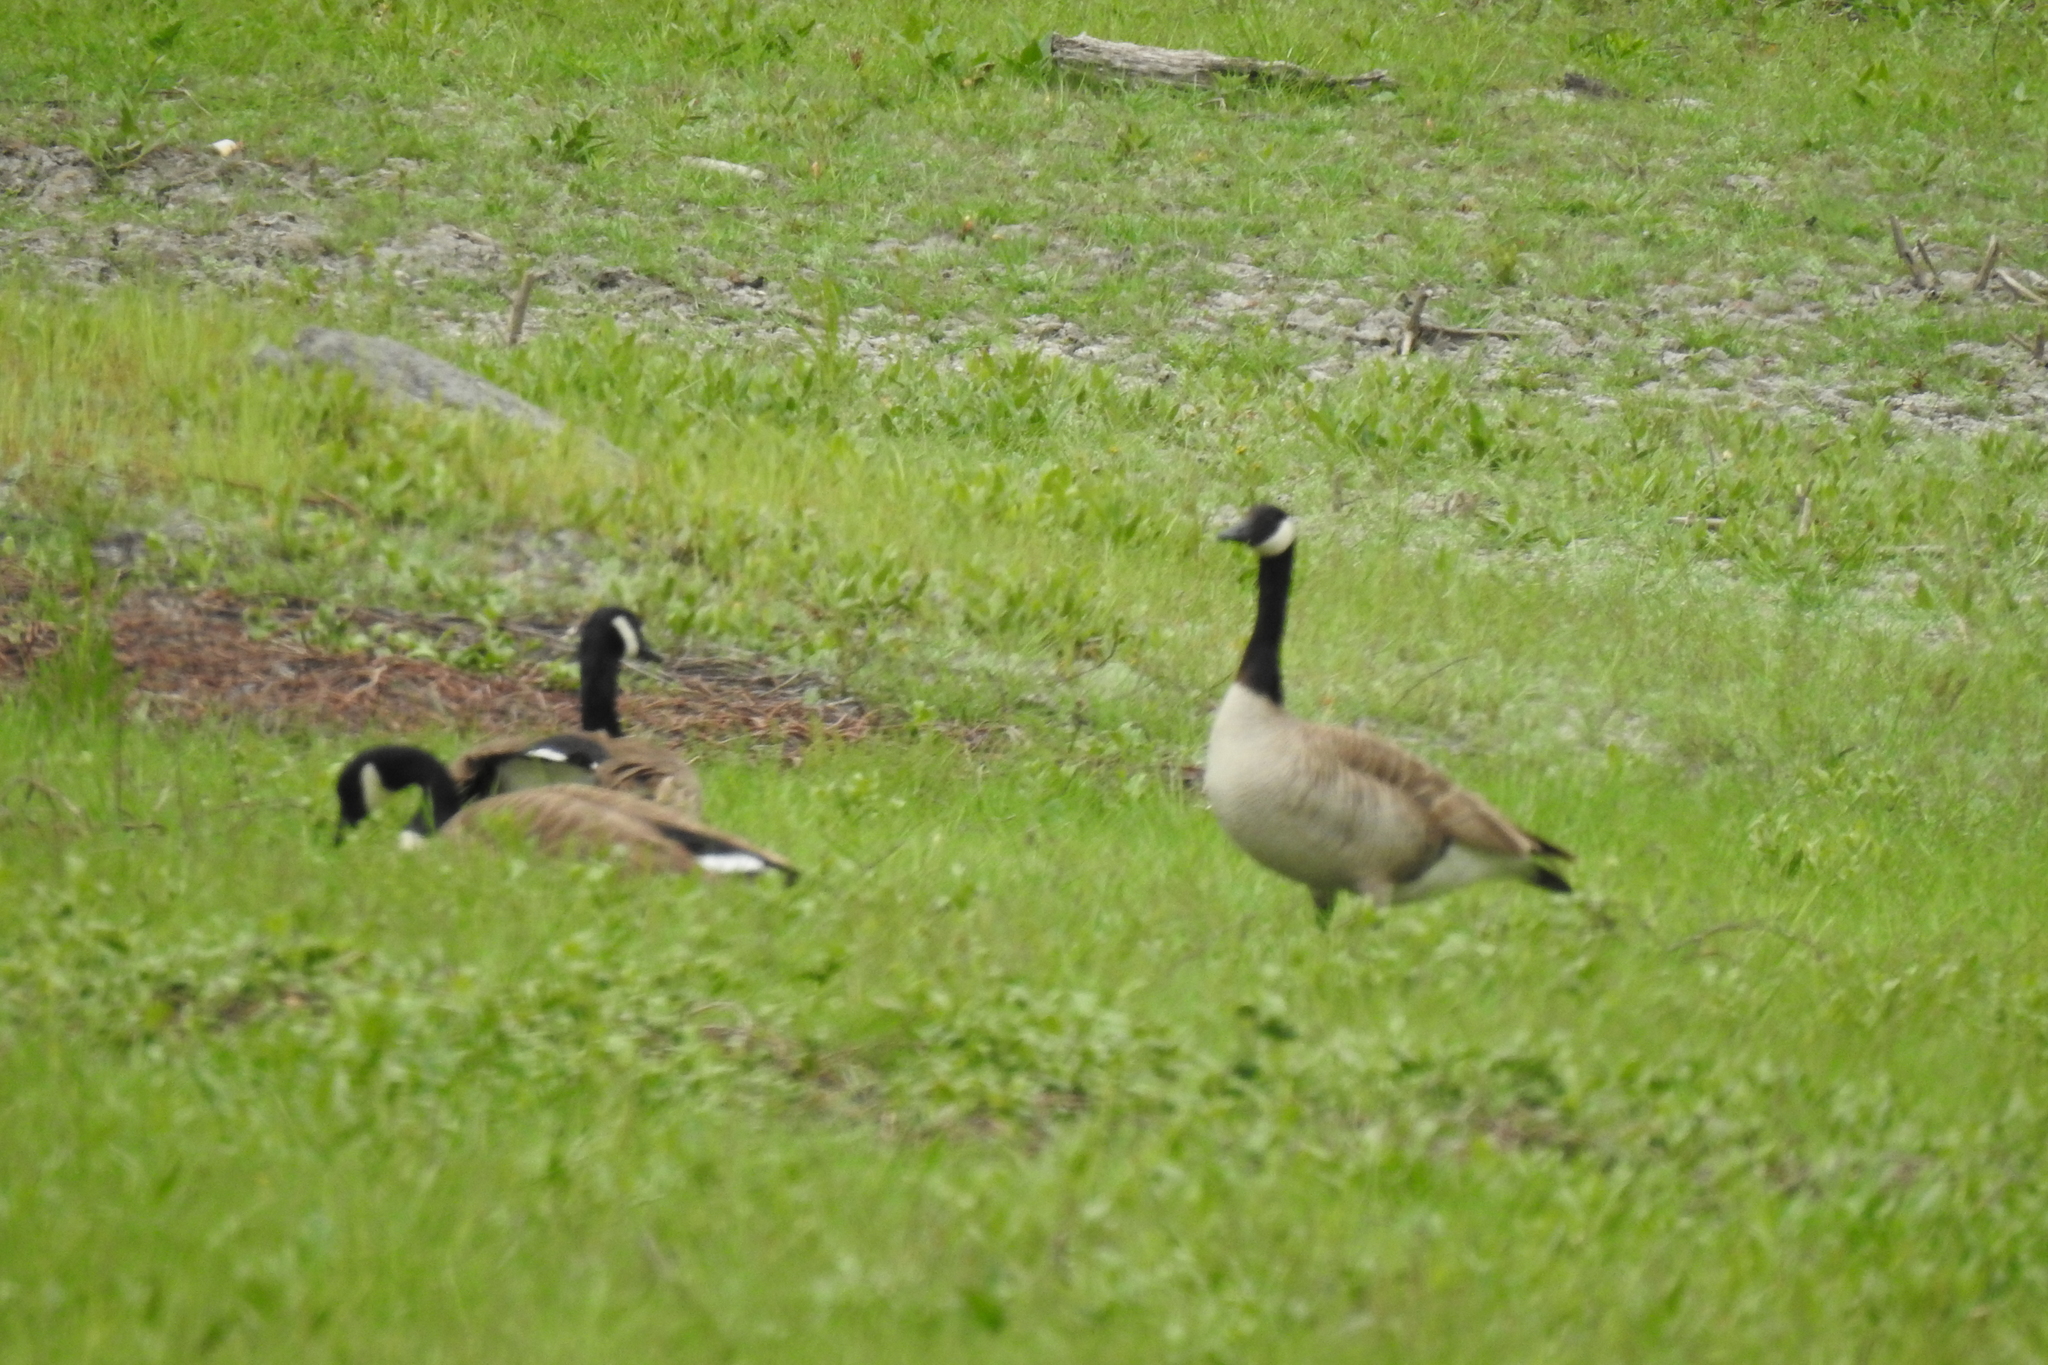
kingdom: Animalia
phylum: Chordata
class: Aves
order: Anseriformes
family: Anatidae
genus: Branta
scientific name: Branta canadensis
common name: Canada goose
